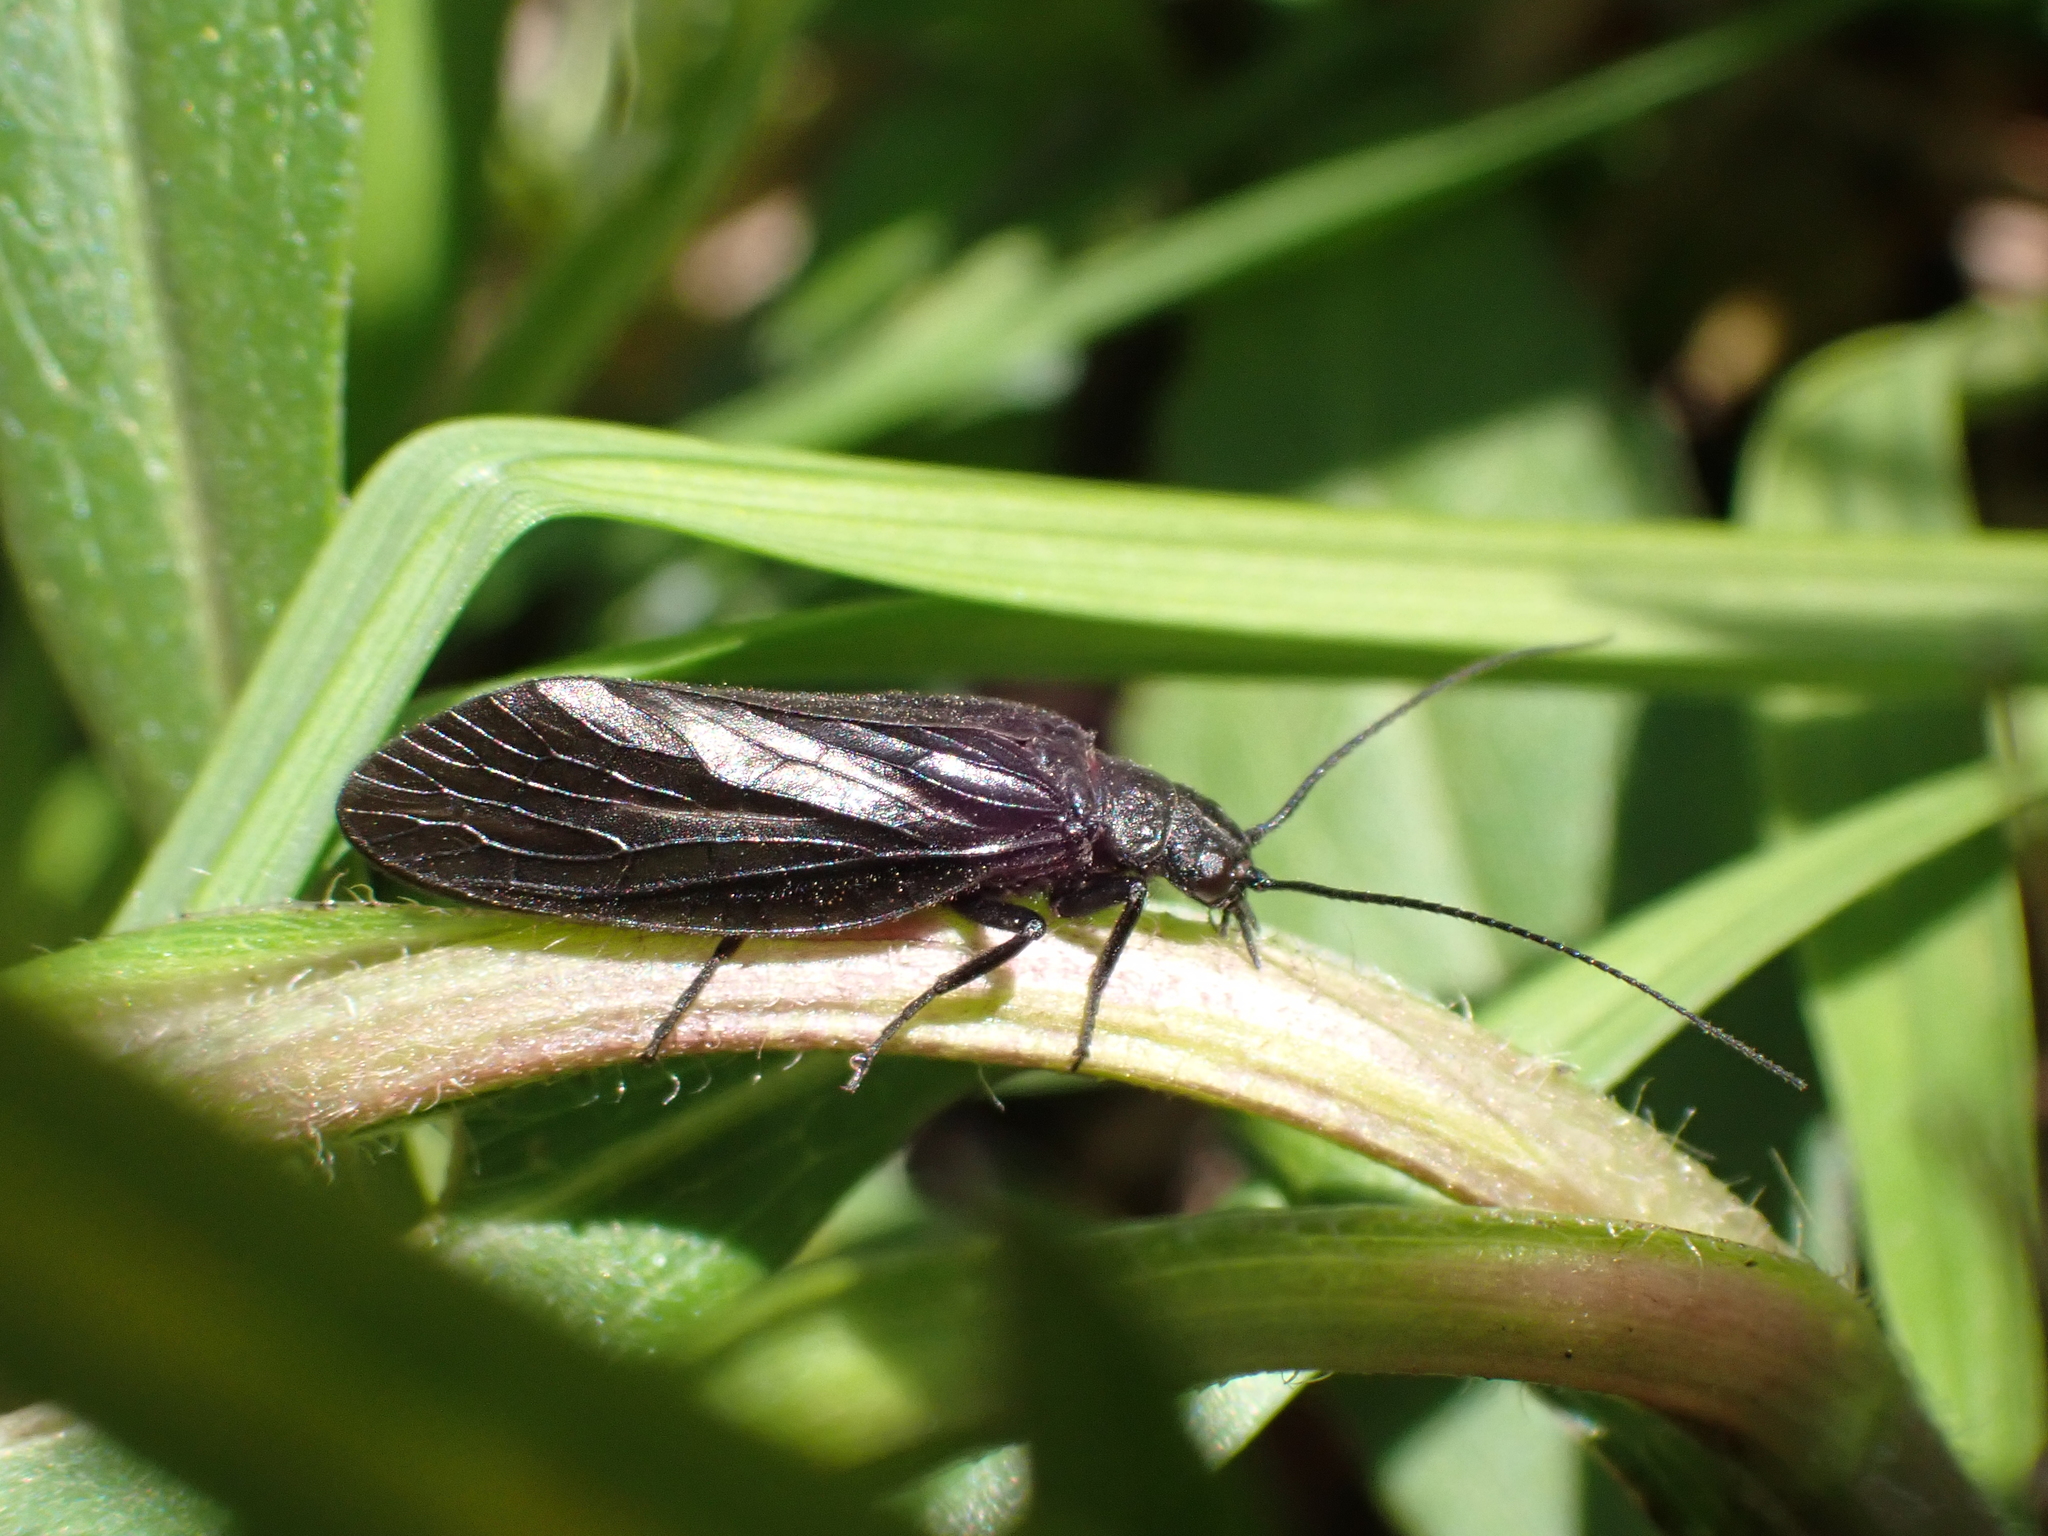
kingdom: Animalia
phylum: Arthropoda
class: Insecta
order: Megaloptera
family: Sialidae
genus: Sialis
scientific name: Sialis
